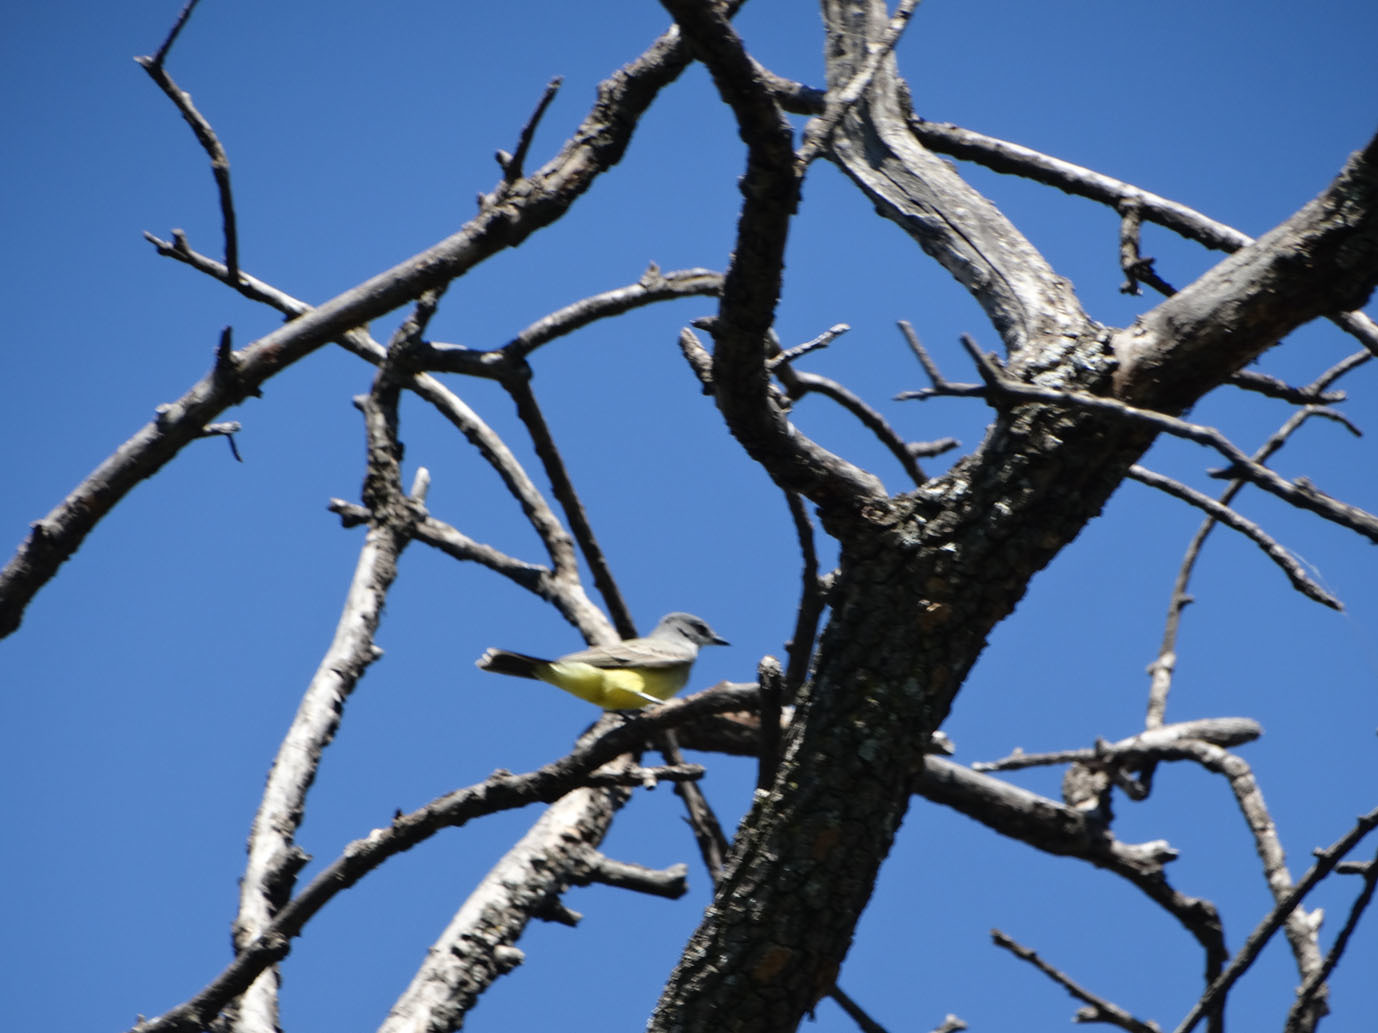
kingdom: Animalia
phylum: Chordata
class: Aves
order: Passeriformes
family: Tyrannidae
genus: Tyrannus
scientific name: Tyrannus vociferans
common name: Cassin's kingbird
